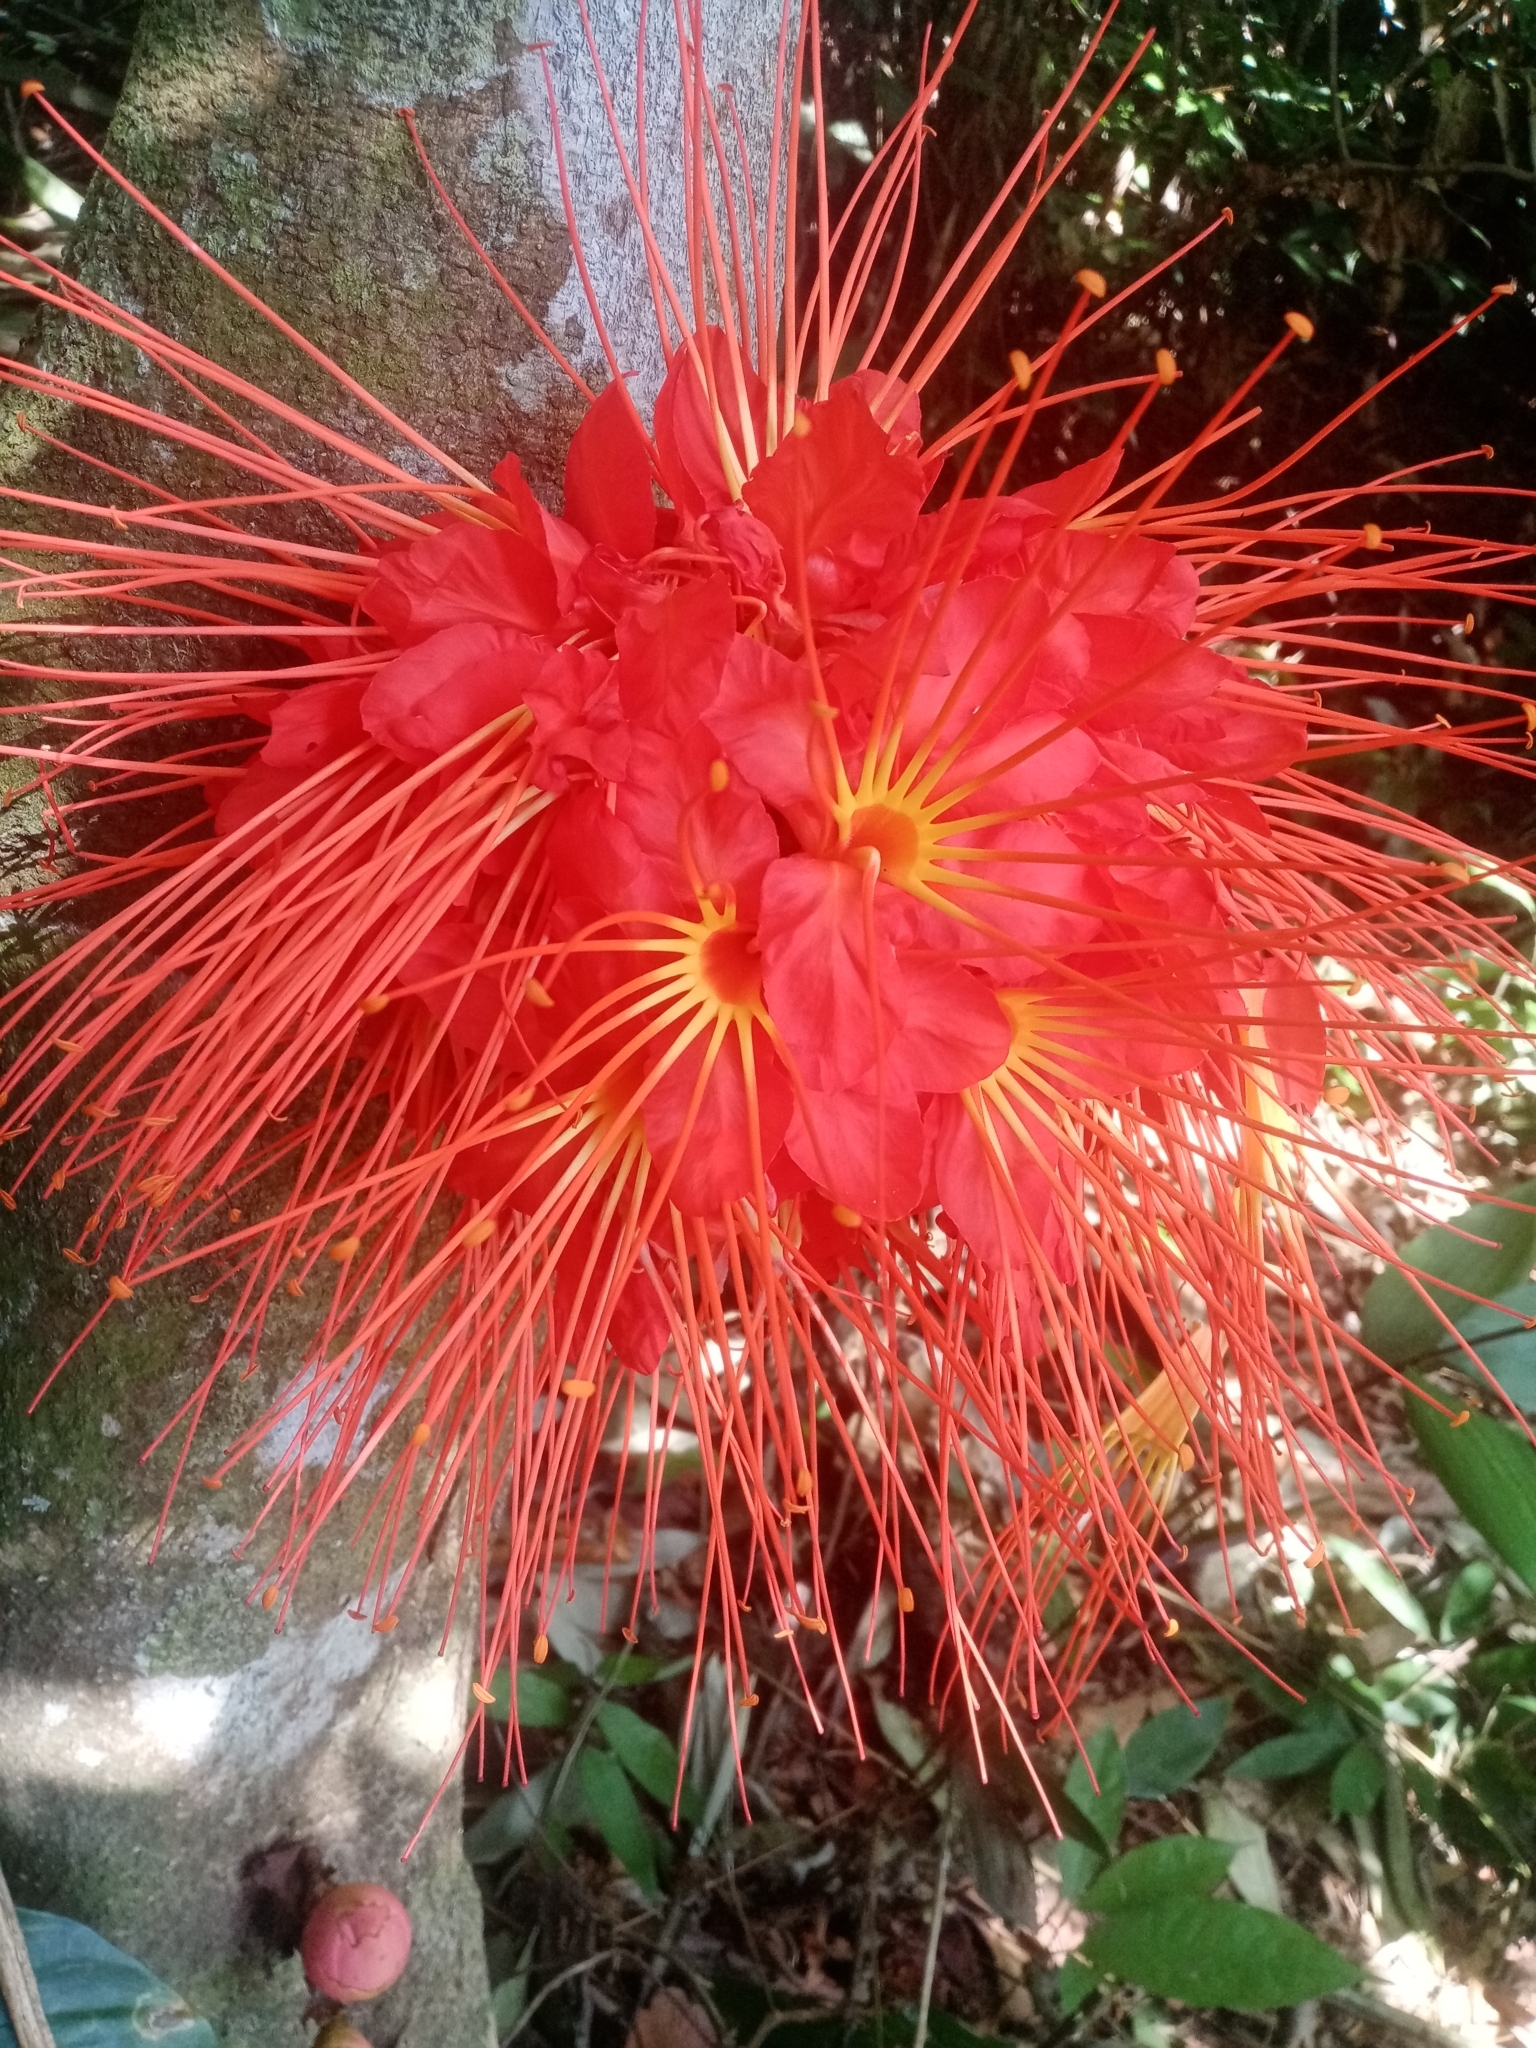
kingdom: Plantae
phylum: Tracheophyta
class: Magnoliopsida
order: Fabales
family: Fabaceae
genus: Brownea
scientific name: Brownea macrophylla
